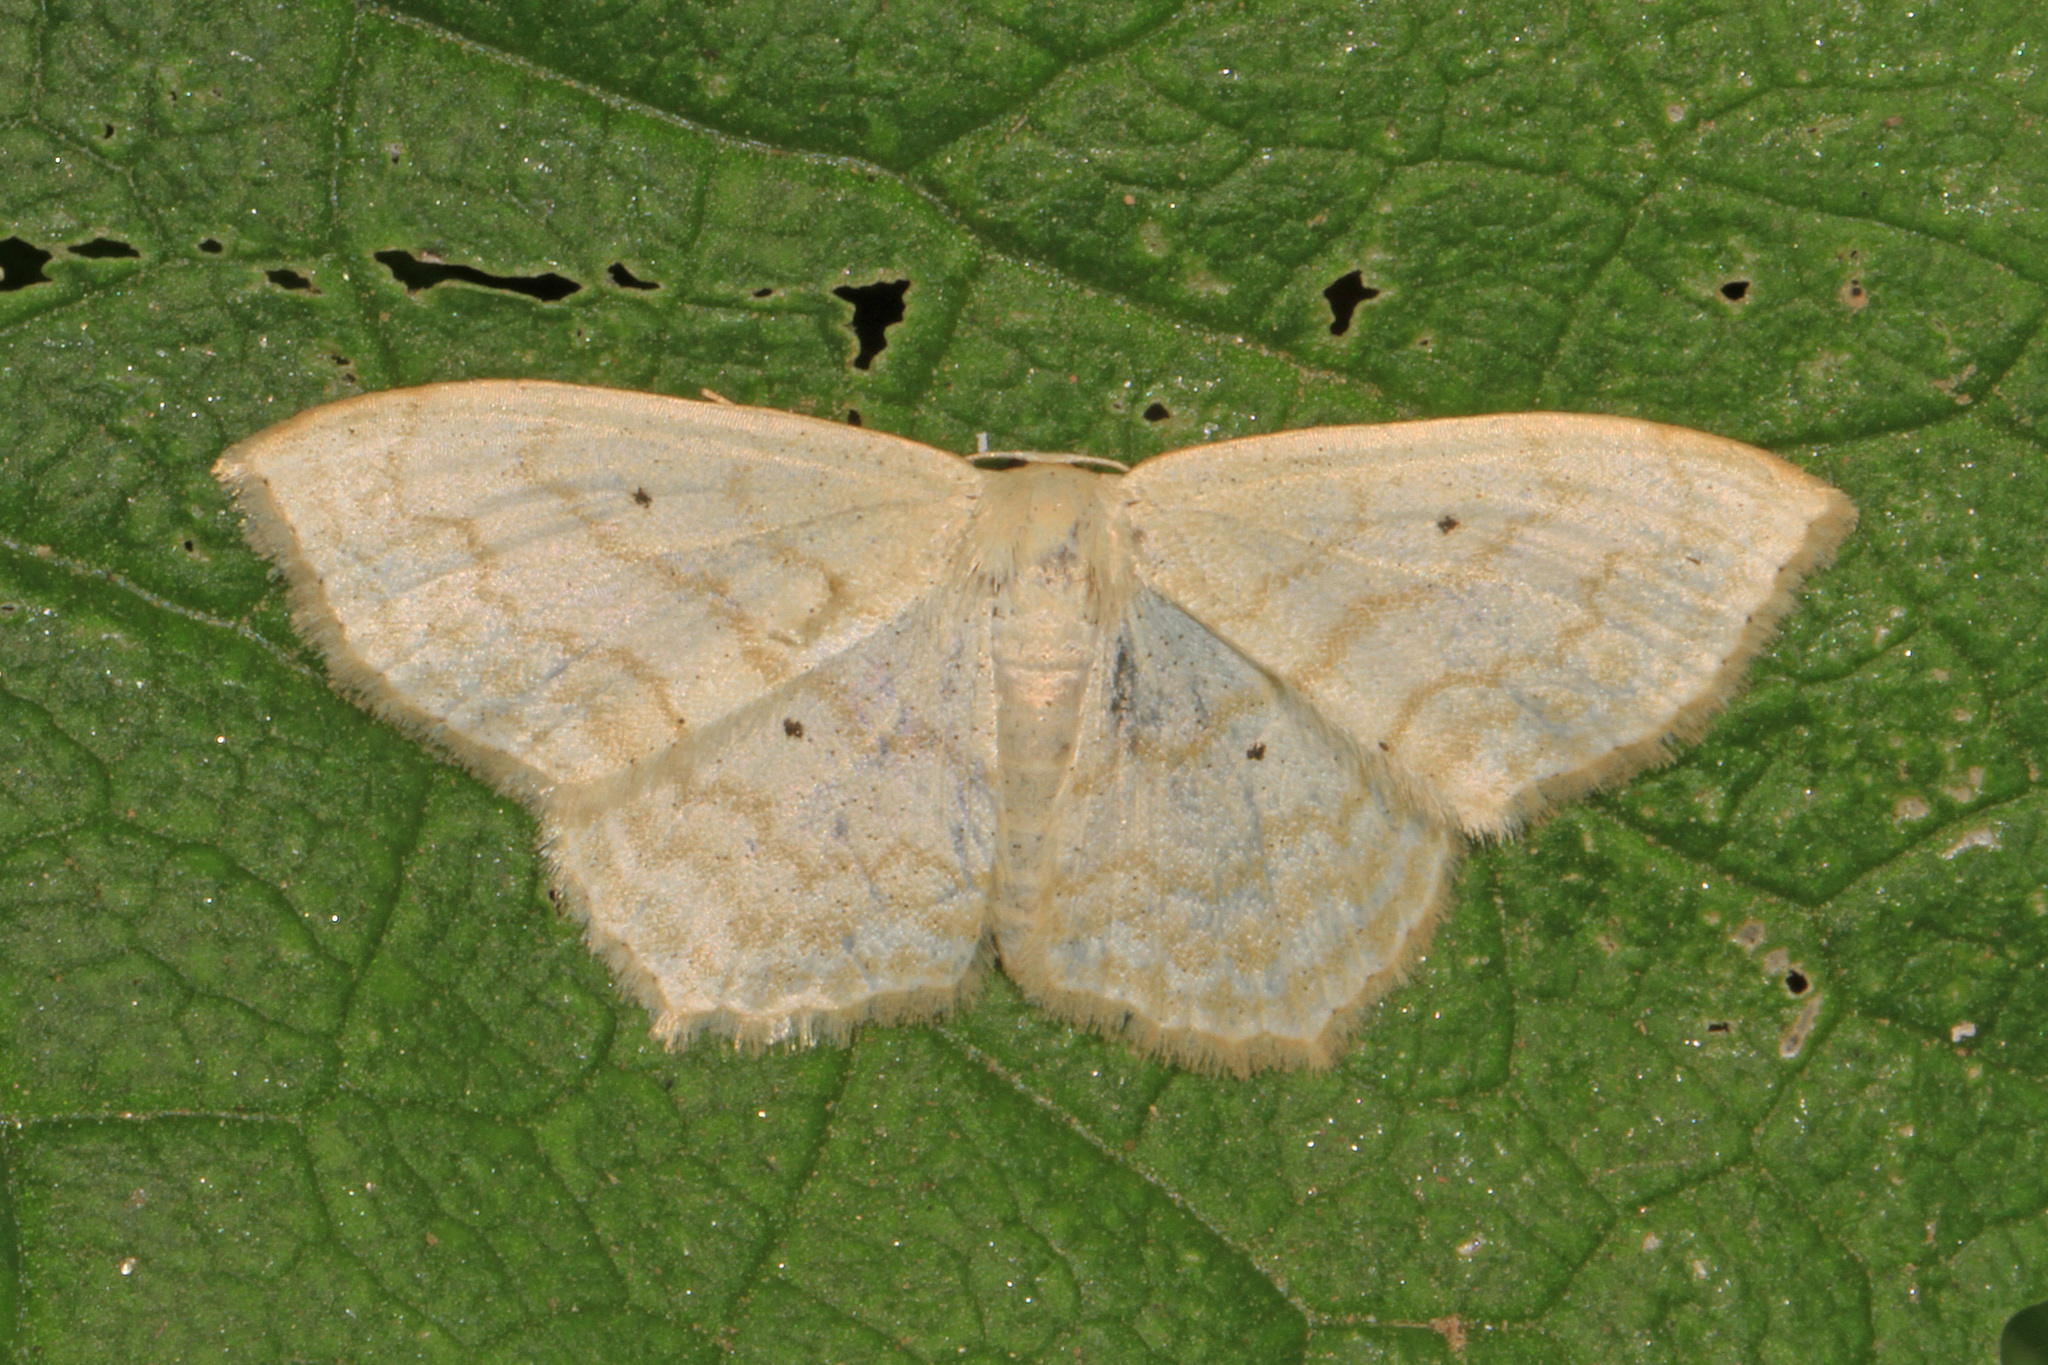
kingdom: Animalia
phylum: Arthropoda
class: Insecta
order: Lepidoptera
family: Geometridae
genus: Scopula
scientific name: Scopula limboundata
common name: Large lace border
